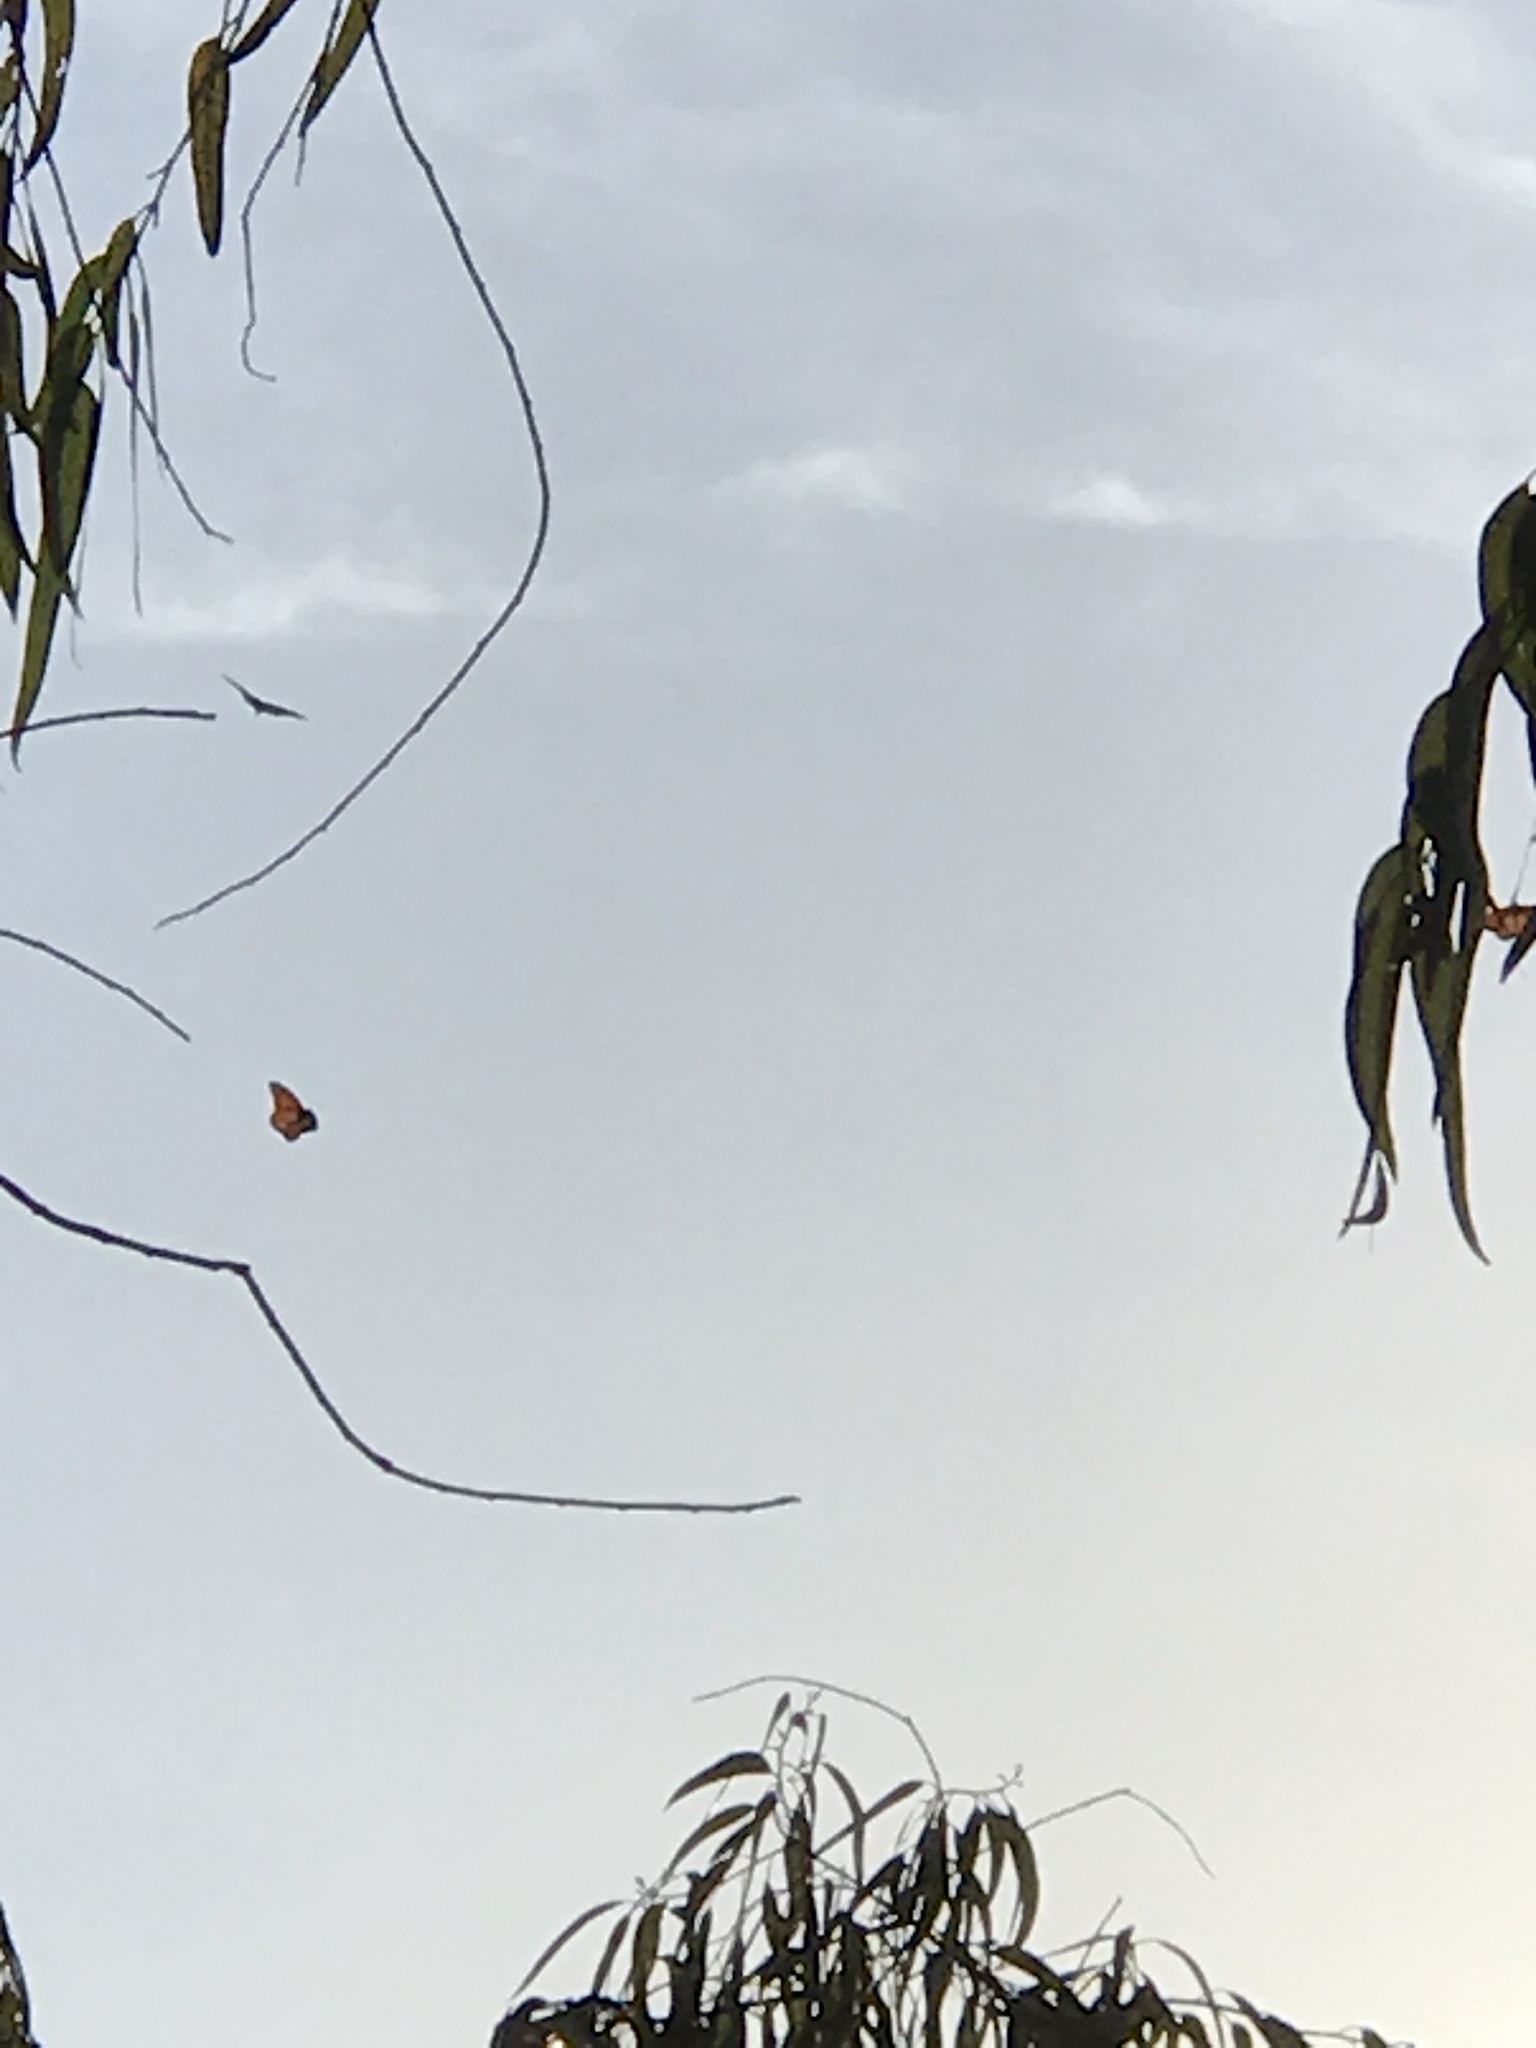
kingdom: Animalia
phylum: Arthropoda
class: Insecta
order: Lepidoptera
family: Nymphalidae
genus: Danaus
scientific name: Danaus plexippus
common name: Monarch
